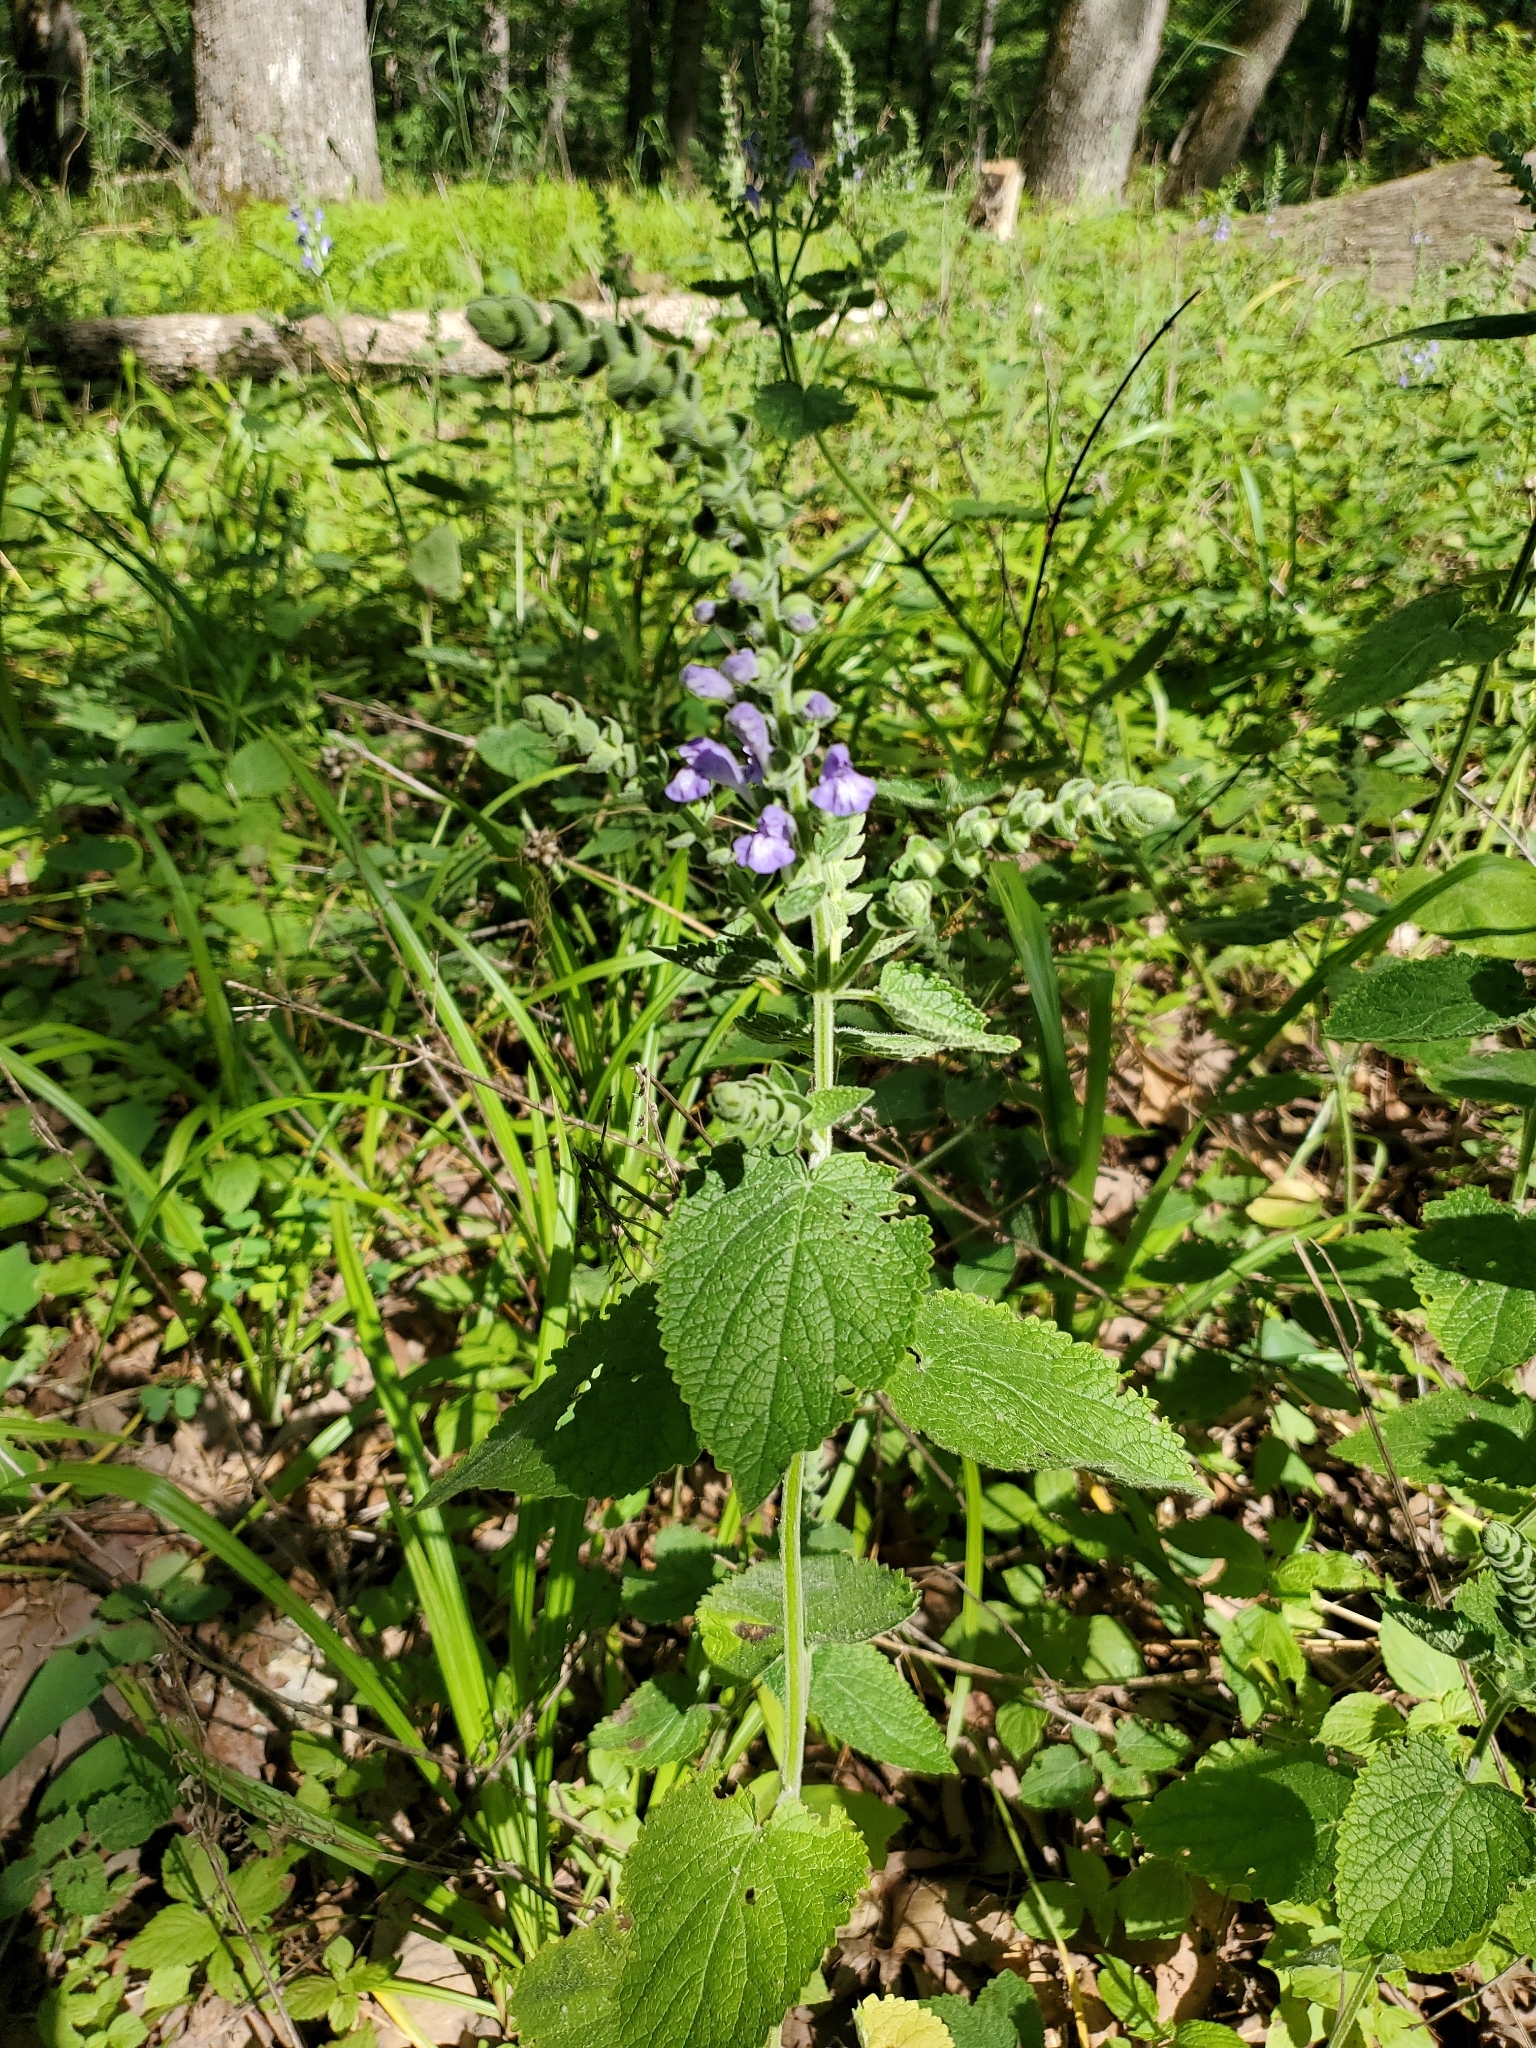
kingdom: Plantae
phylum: Tracheophyta
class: Magnoliopsida
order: Lamiales
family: Lamiaceae
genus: Scutellaria
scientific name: Scutellaria ovata
